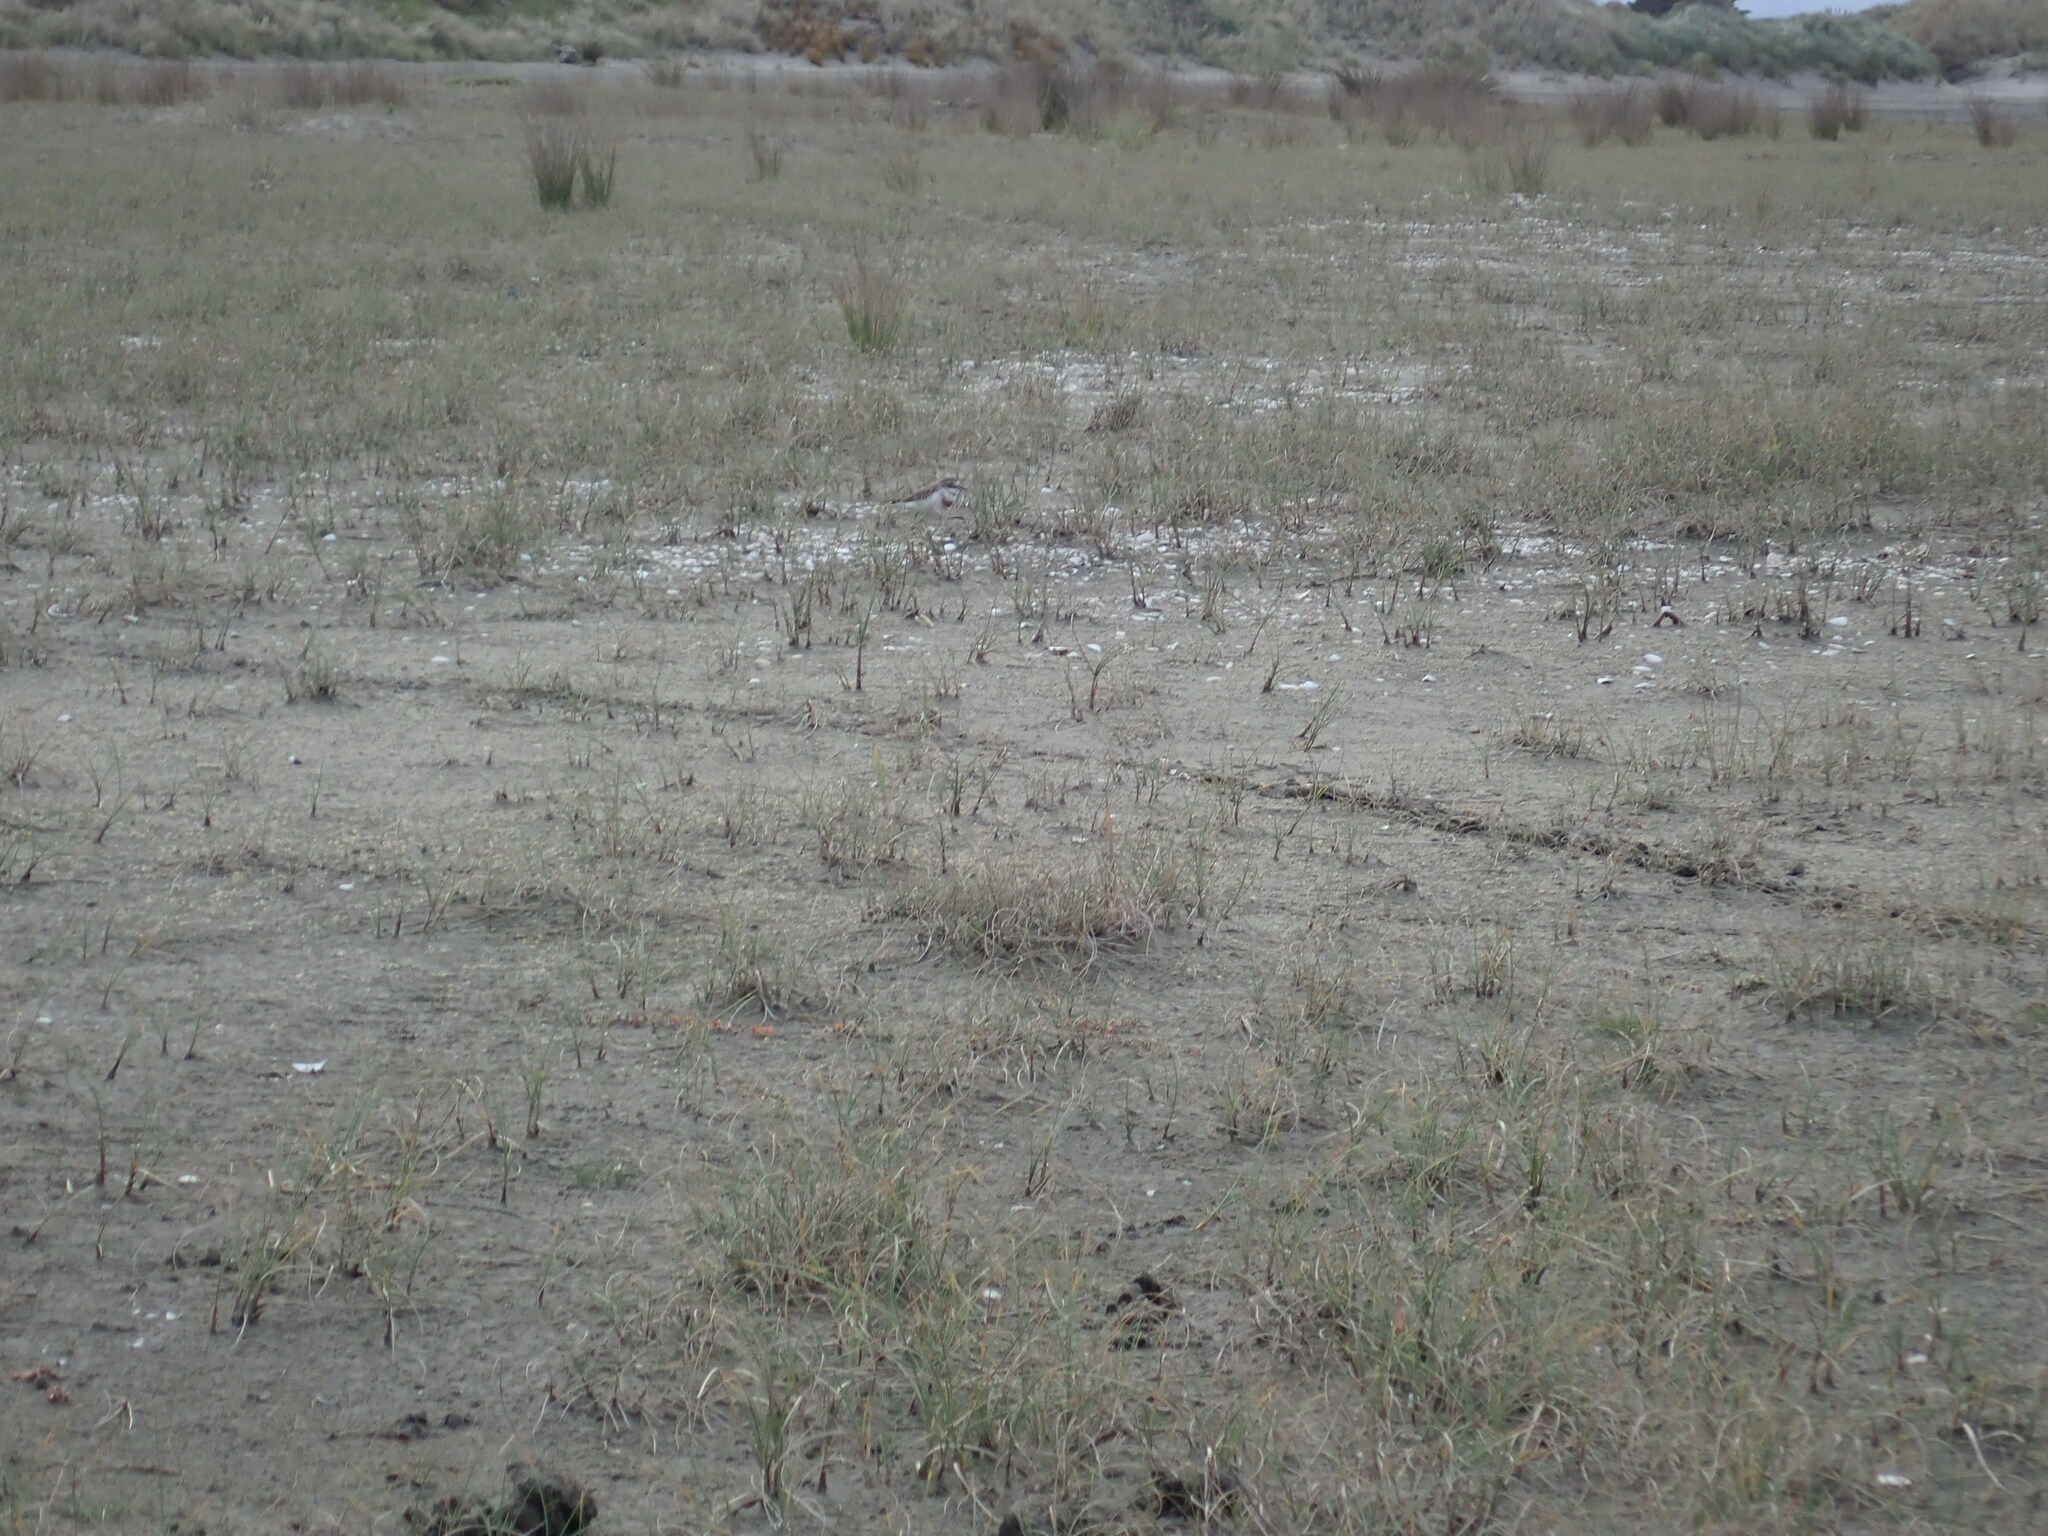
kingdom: Animalia
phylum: Chordata
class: Aves
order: Charadriiformes
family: Charadriidae
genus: Anarhynchus
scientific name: Anarhynchus
